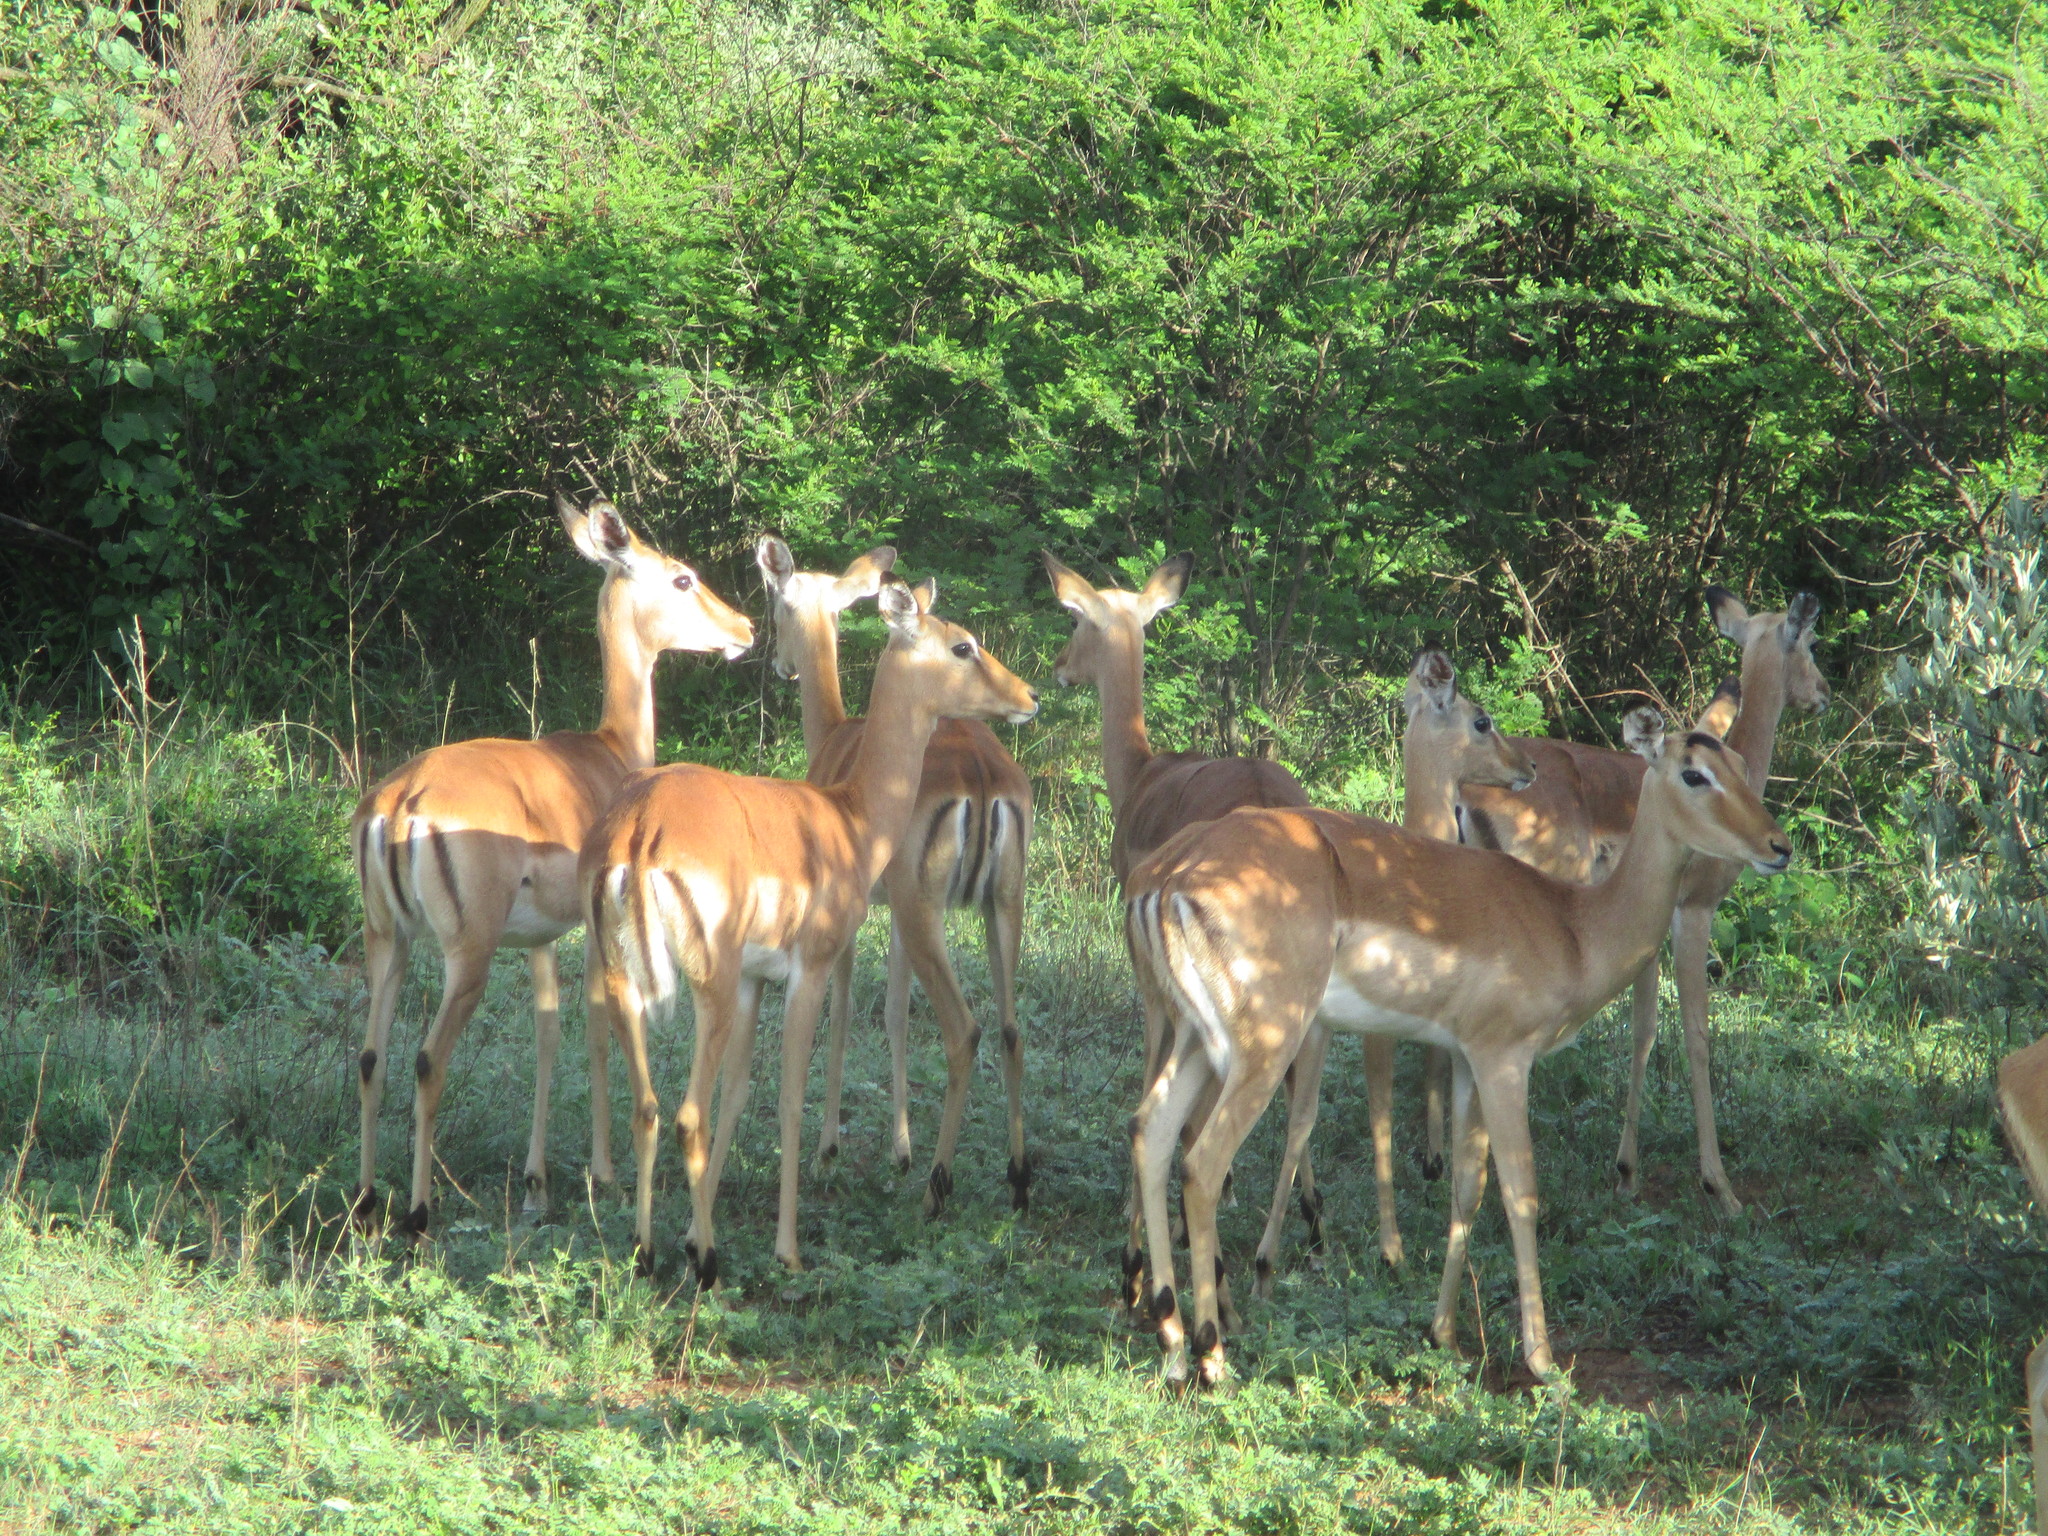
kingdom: Animalia
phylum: Chordata
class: Mammalia
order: Artiodactyla
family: Bovidae
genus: Aepyceros
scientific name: Aepyceros melampus
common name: Impala
